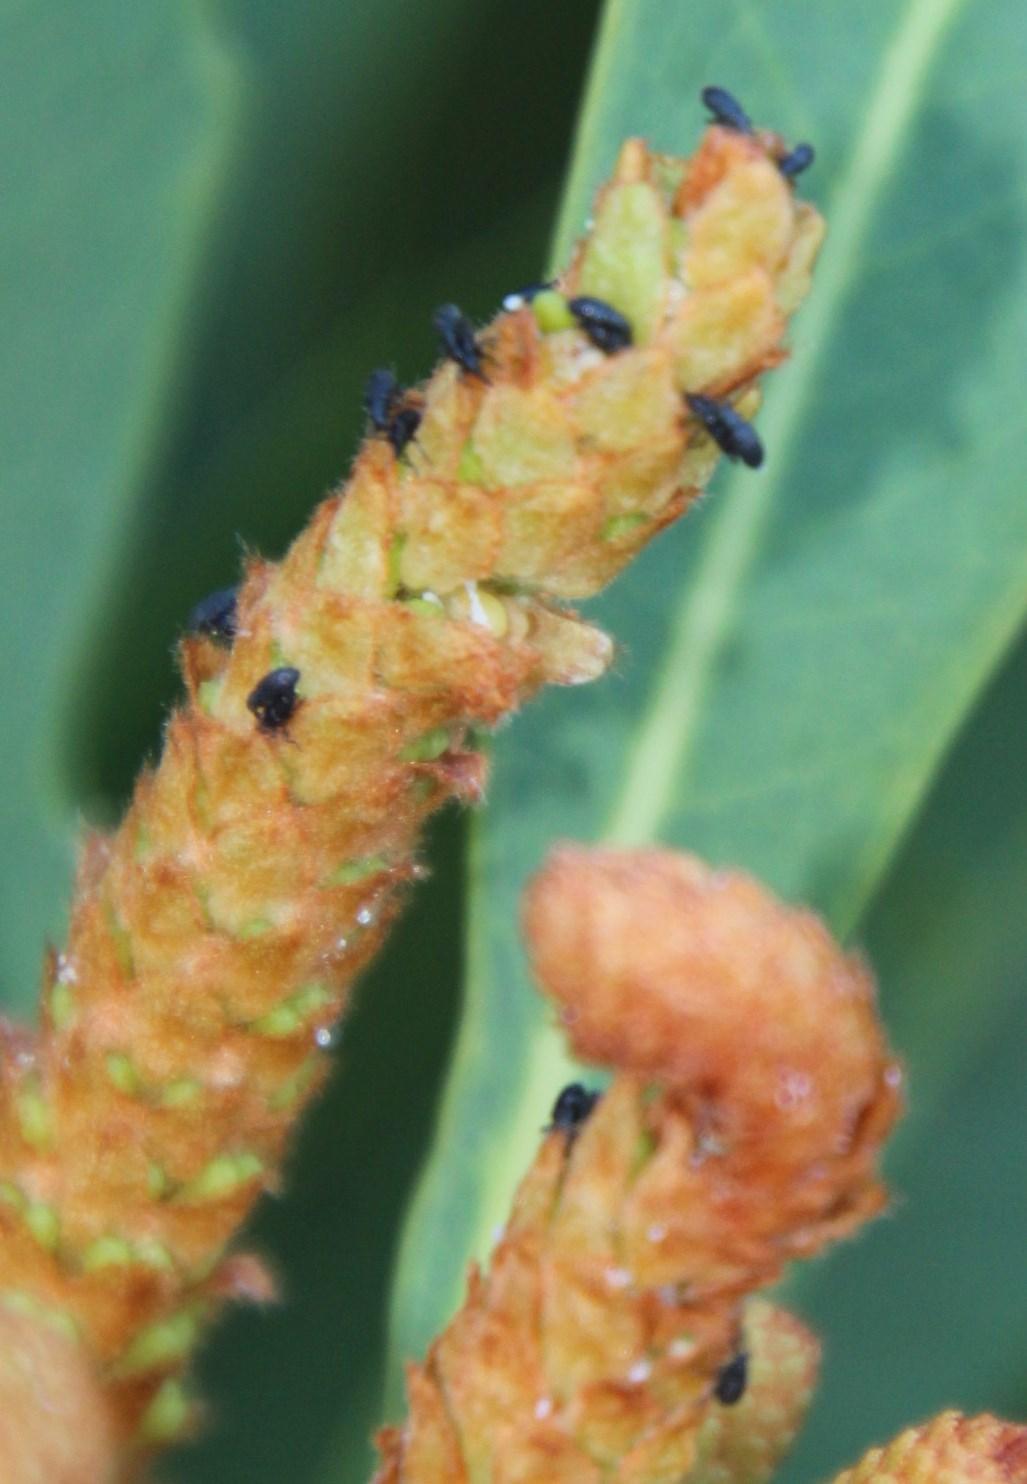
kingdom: Animalia
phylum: Arthropoda
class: Insecta
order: Coleoptera
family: Brentidae
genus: Setapion
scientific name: Setapion
